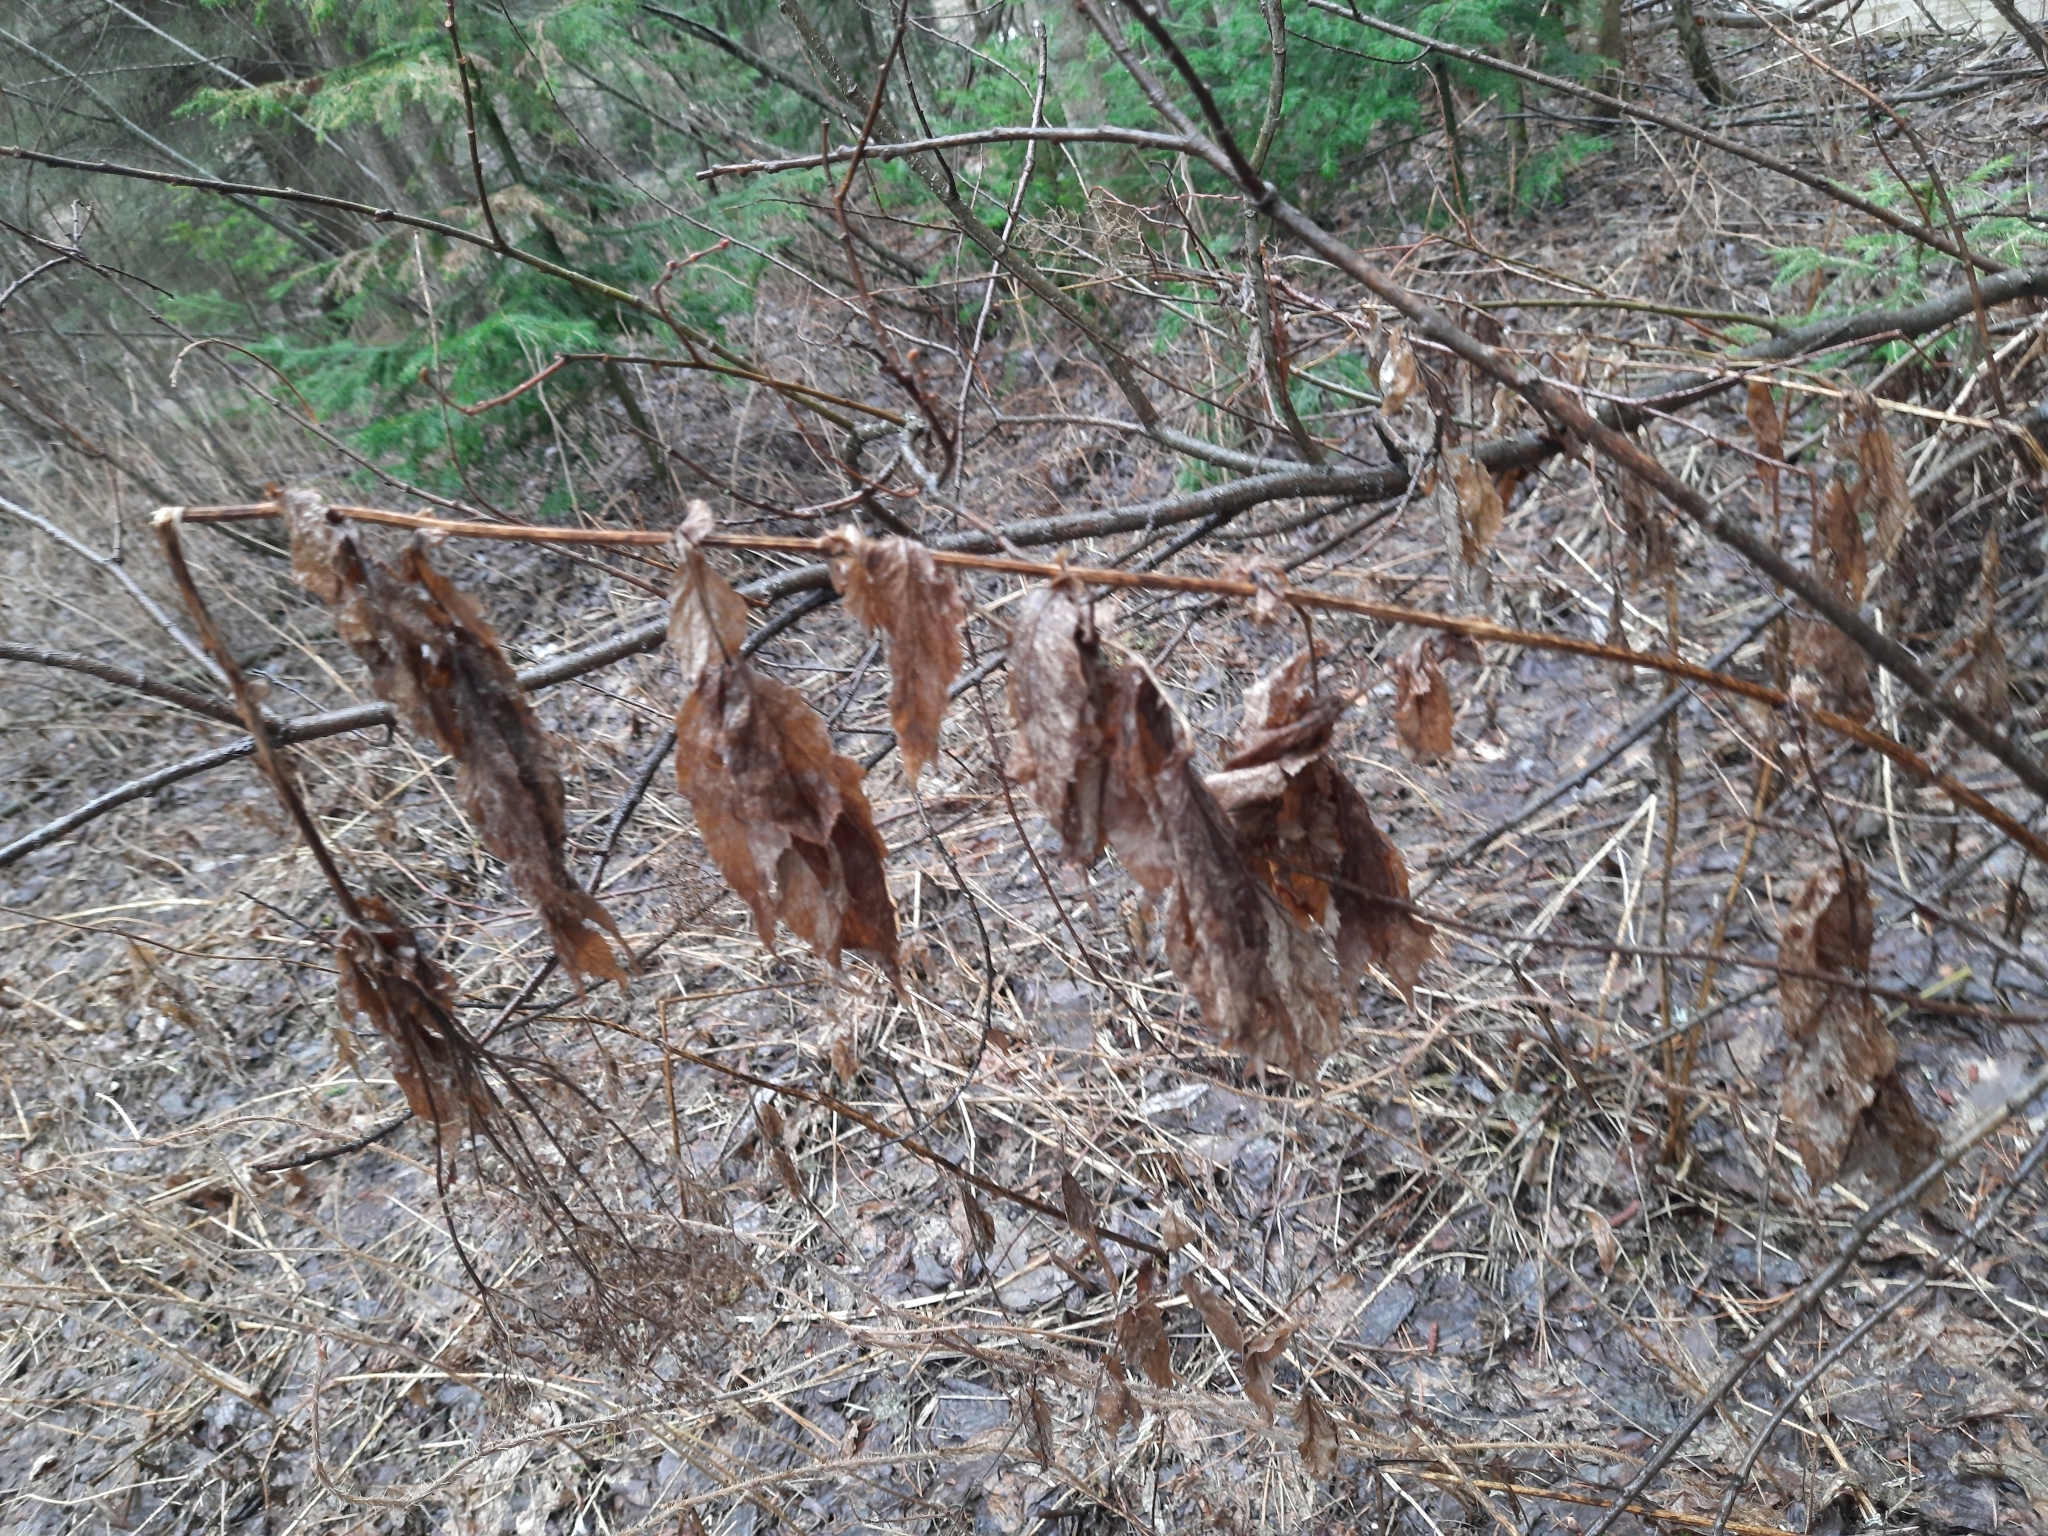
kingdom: Plantae
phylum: Tracheophyta
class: Magnoliopsida
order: Rosales
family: Rosaceae
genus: Filipendula
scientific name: Filipendula ulmaria
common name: Meadowsweet
